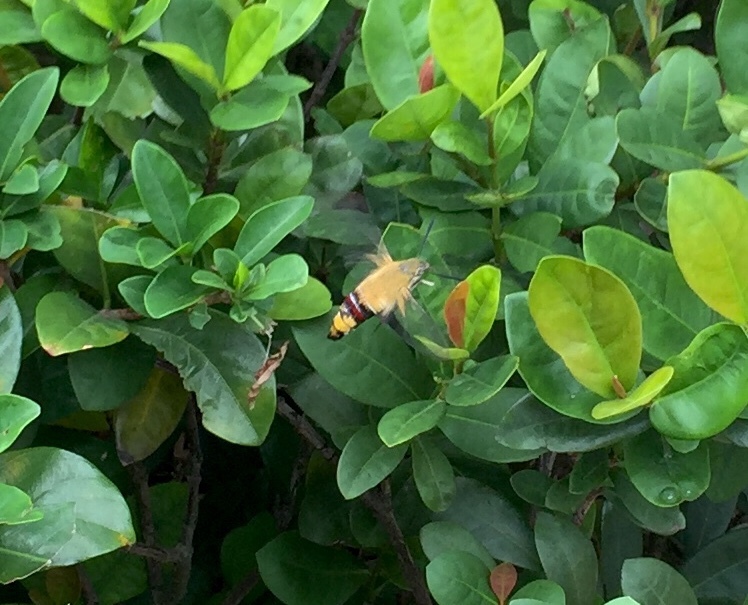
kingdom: Animalia
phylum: Arthropoda
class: Insecta
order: Lepidoptera
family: Sphingidae
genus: Cephonodes
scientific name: Cephonodes hylas
